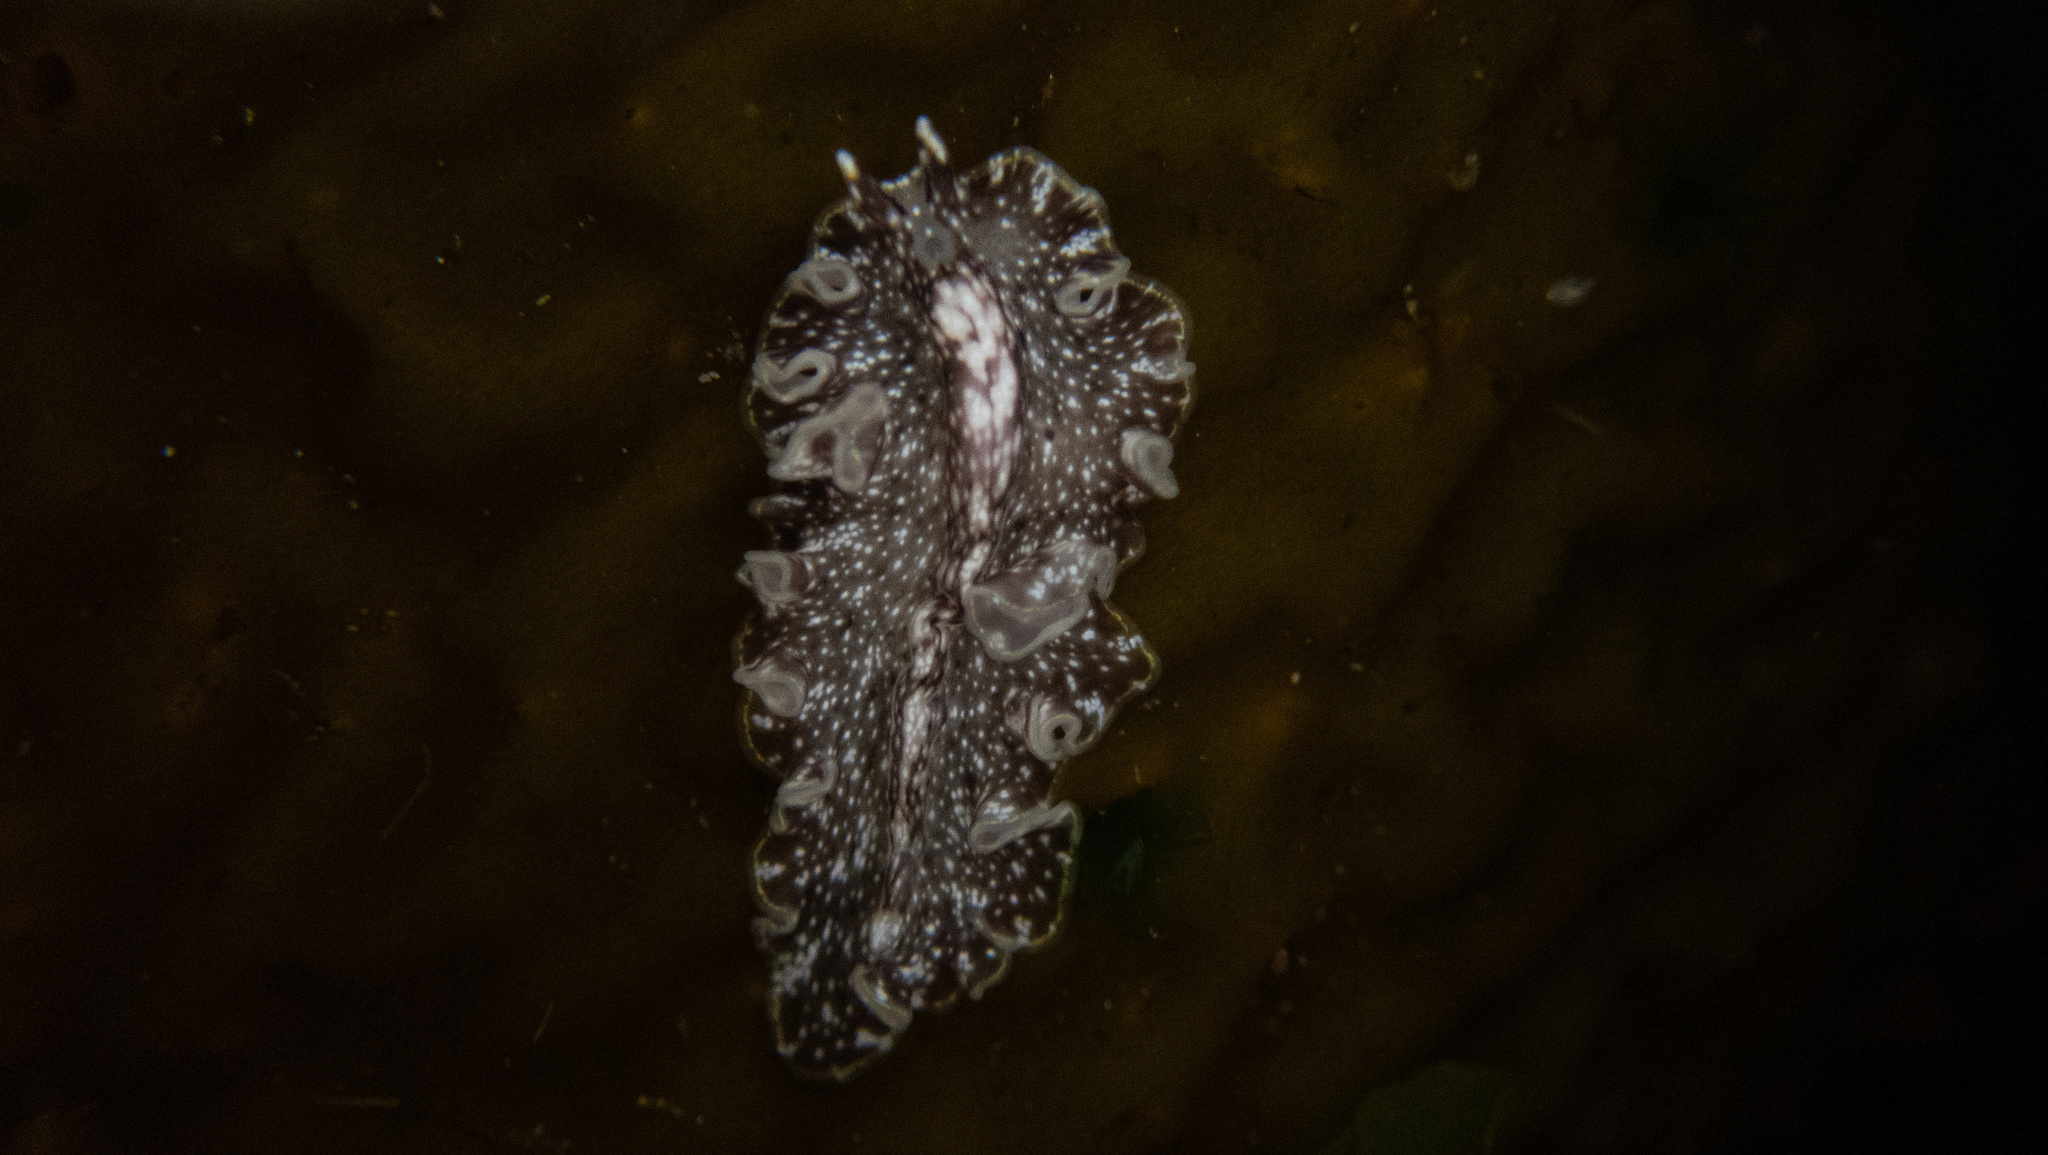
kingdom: Animalia
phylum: Platyhelminthes
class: Turbellaria
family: Pseudocerotidae
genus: Pseudoceros
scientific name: Pseudoceros mexicanus
